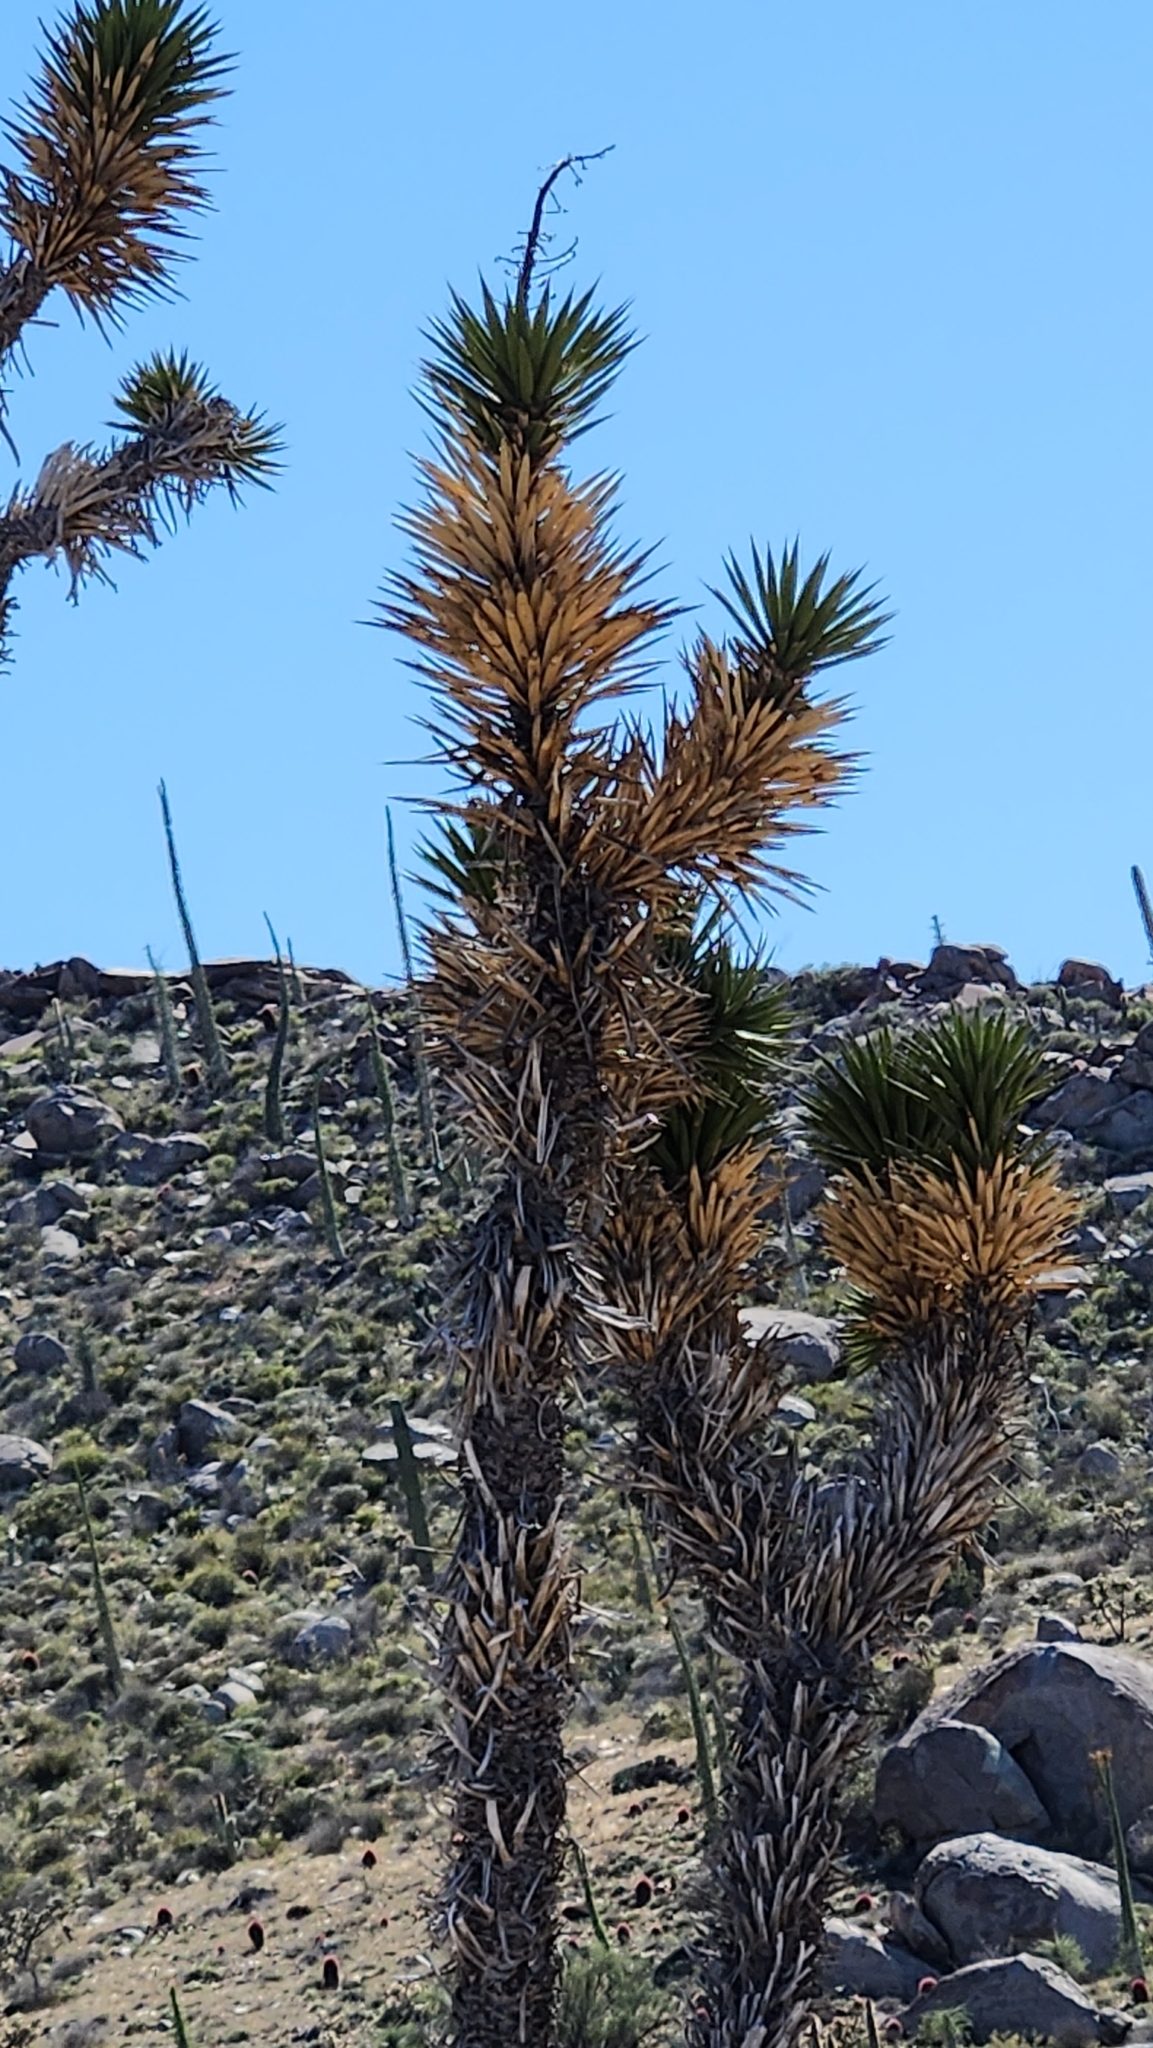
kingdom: Plantae
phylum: Tracheophyta
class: Liliopsida
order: Asparagales
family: Asparagaceae
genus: Yucca
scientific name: Yucca valida
